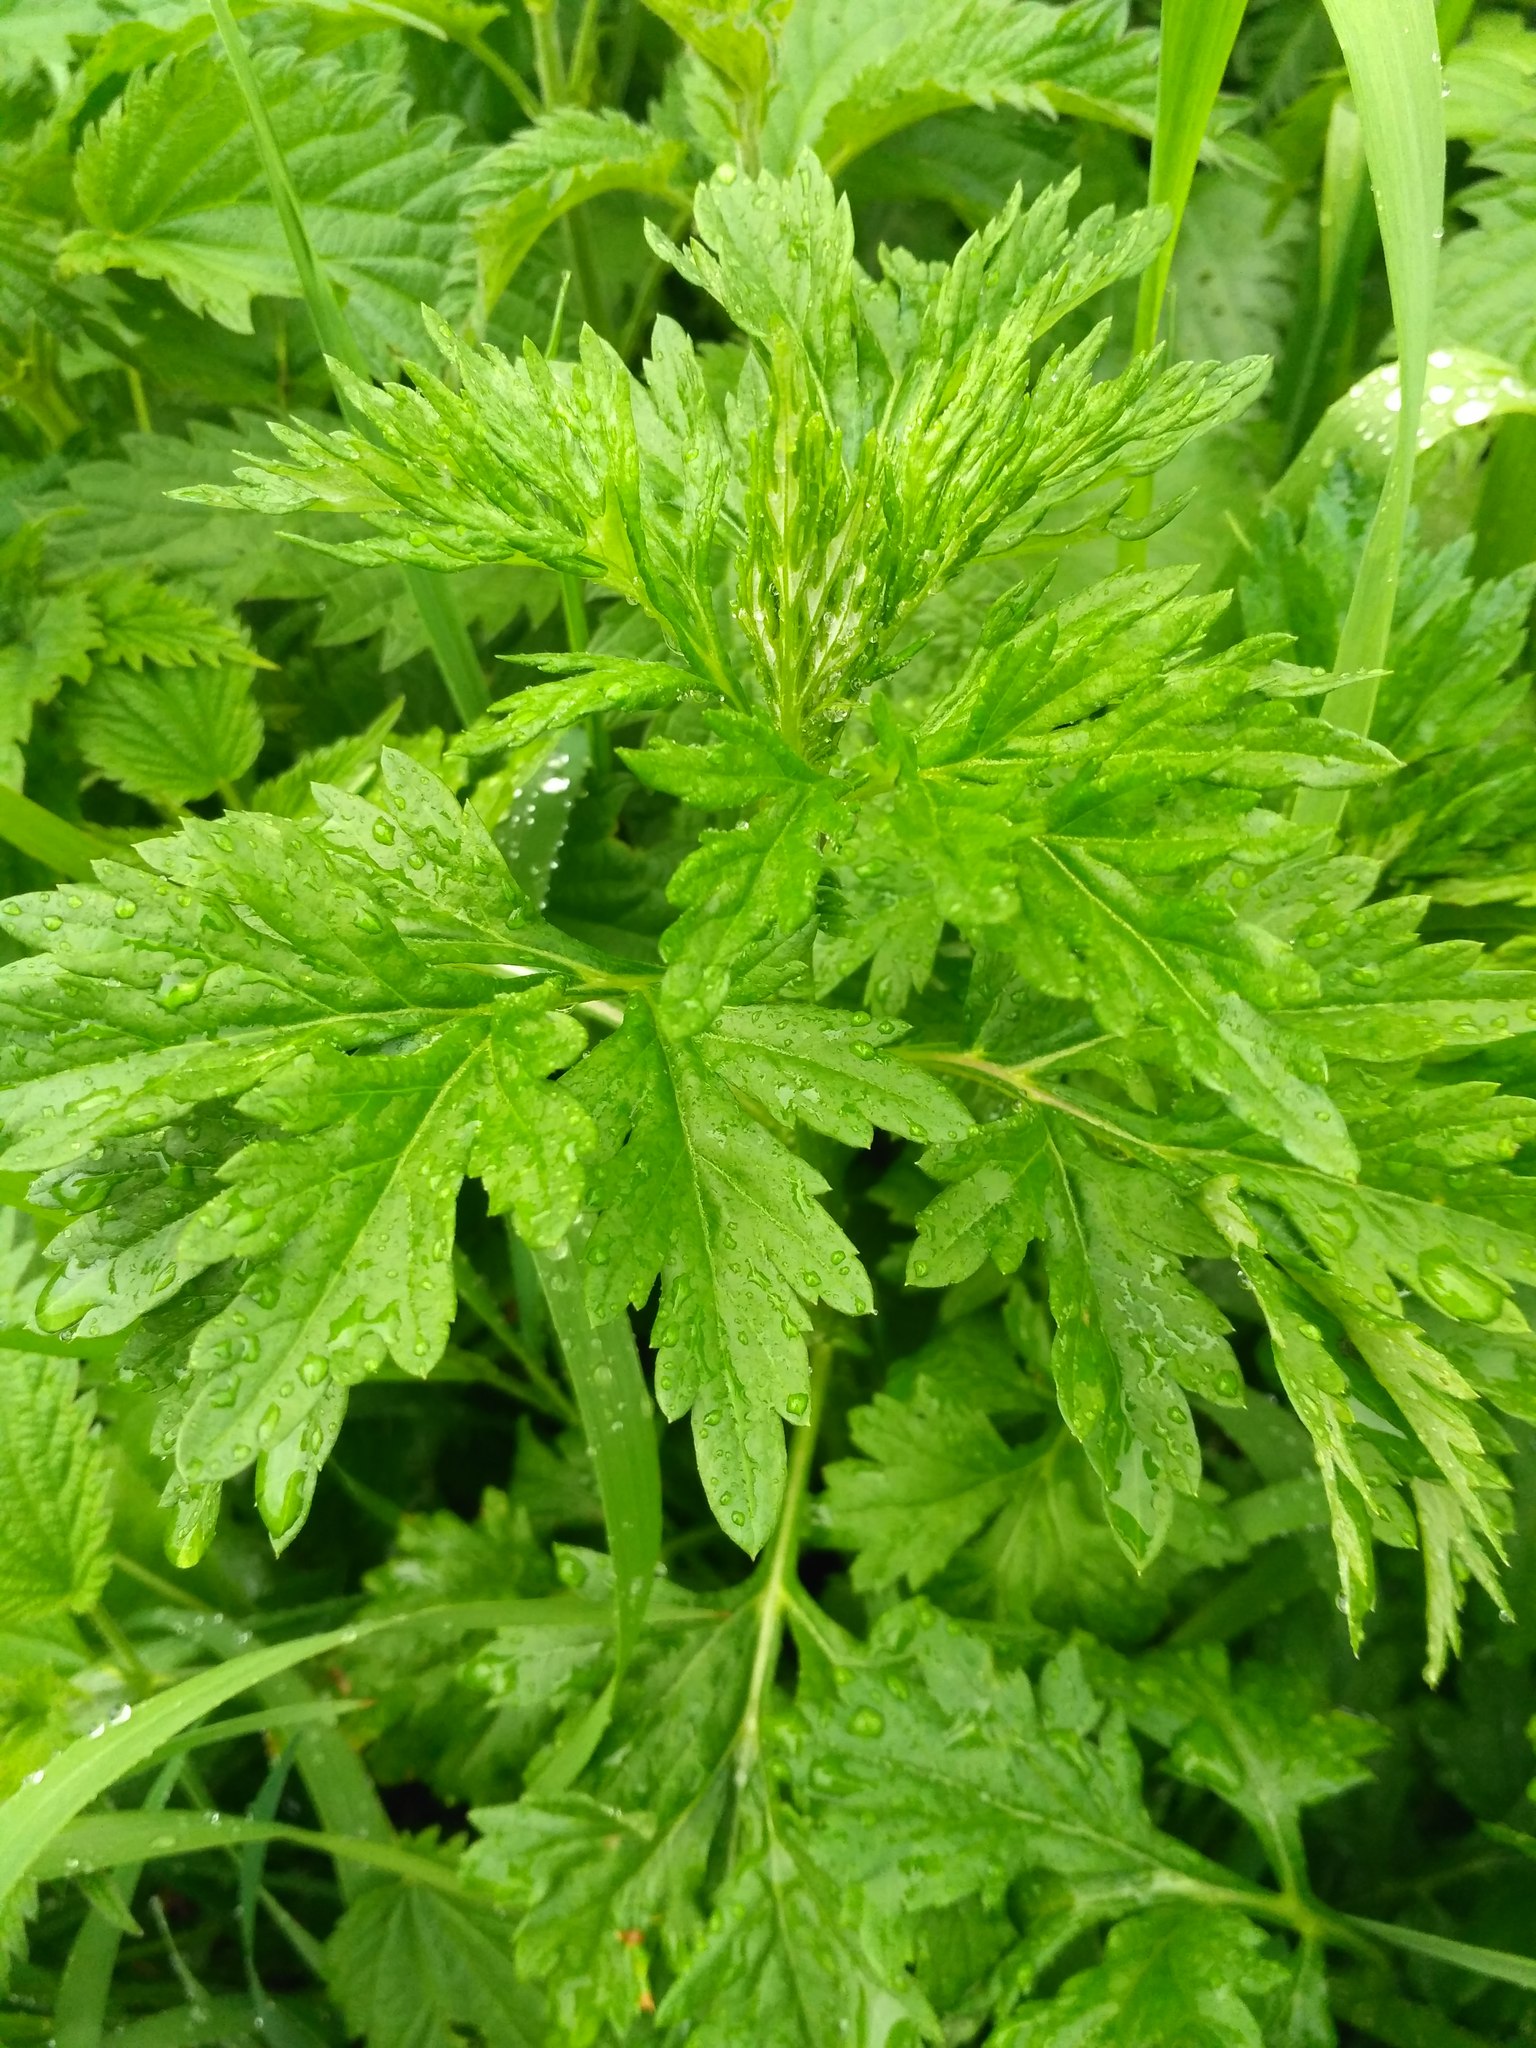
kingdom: Plantae
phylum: Tracheophyta
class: Magnoliopsida
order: Asterales
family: Asteraceae
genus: Artemisia
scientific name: Artemisia vulgaris
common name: Mugwort
